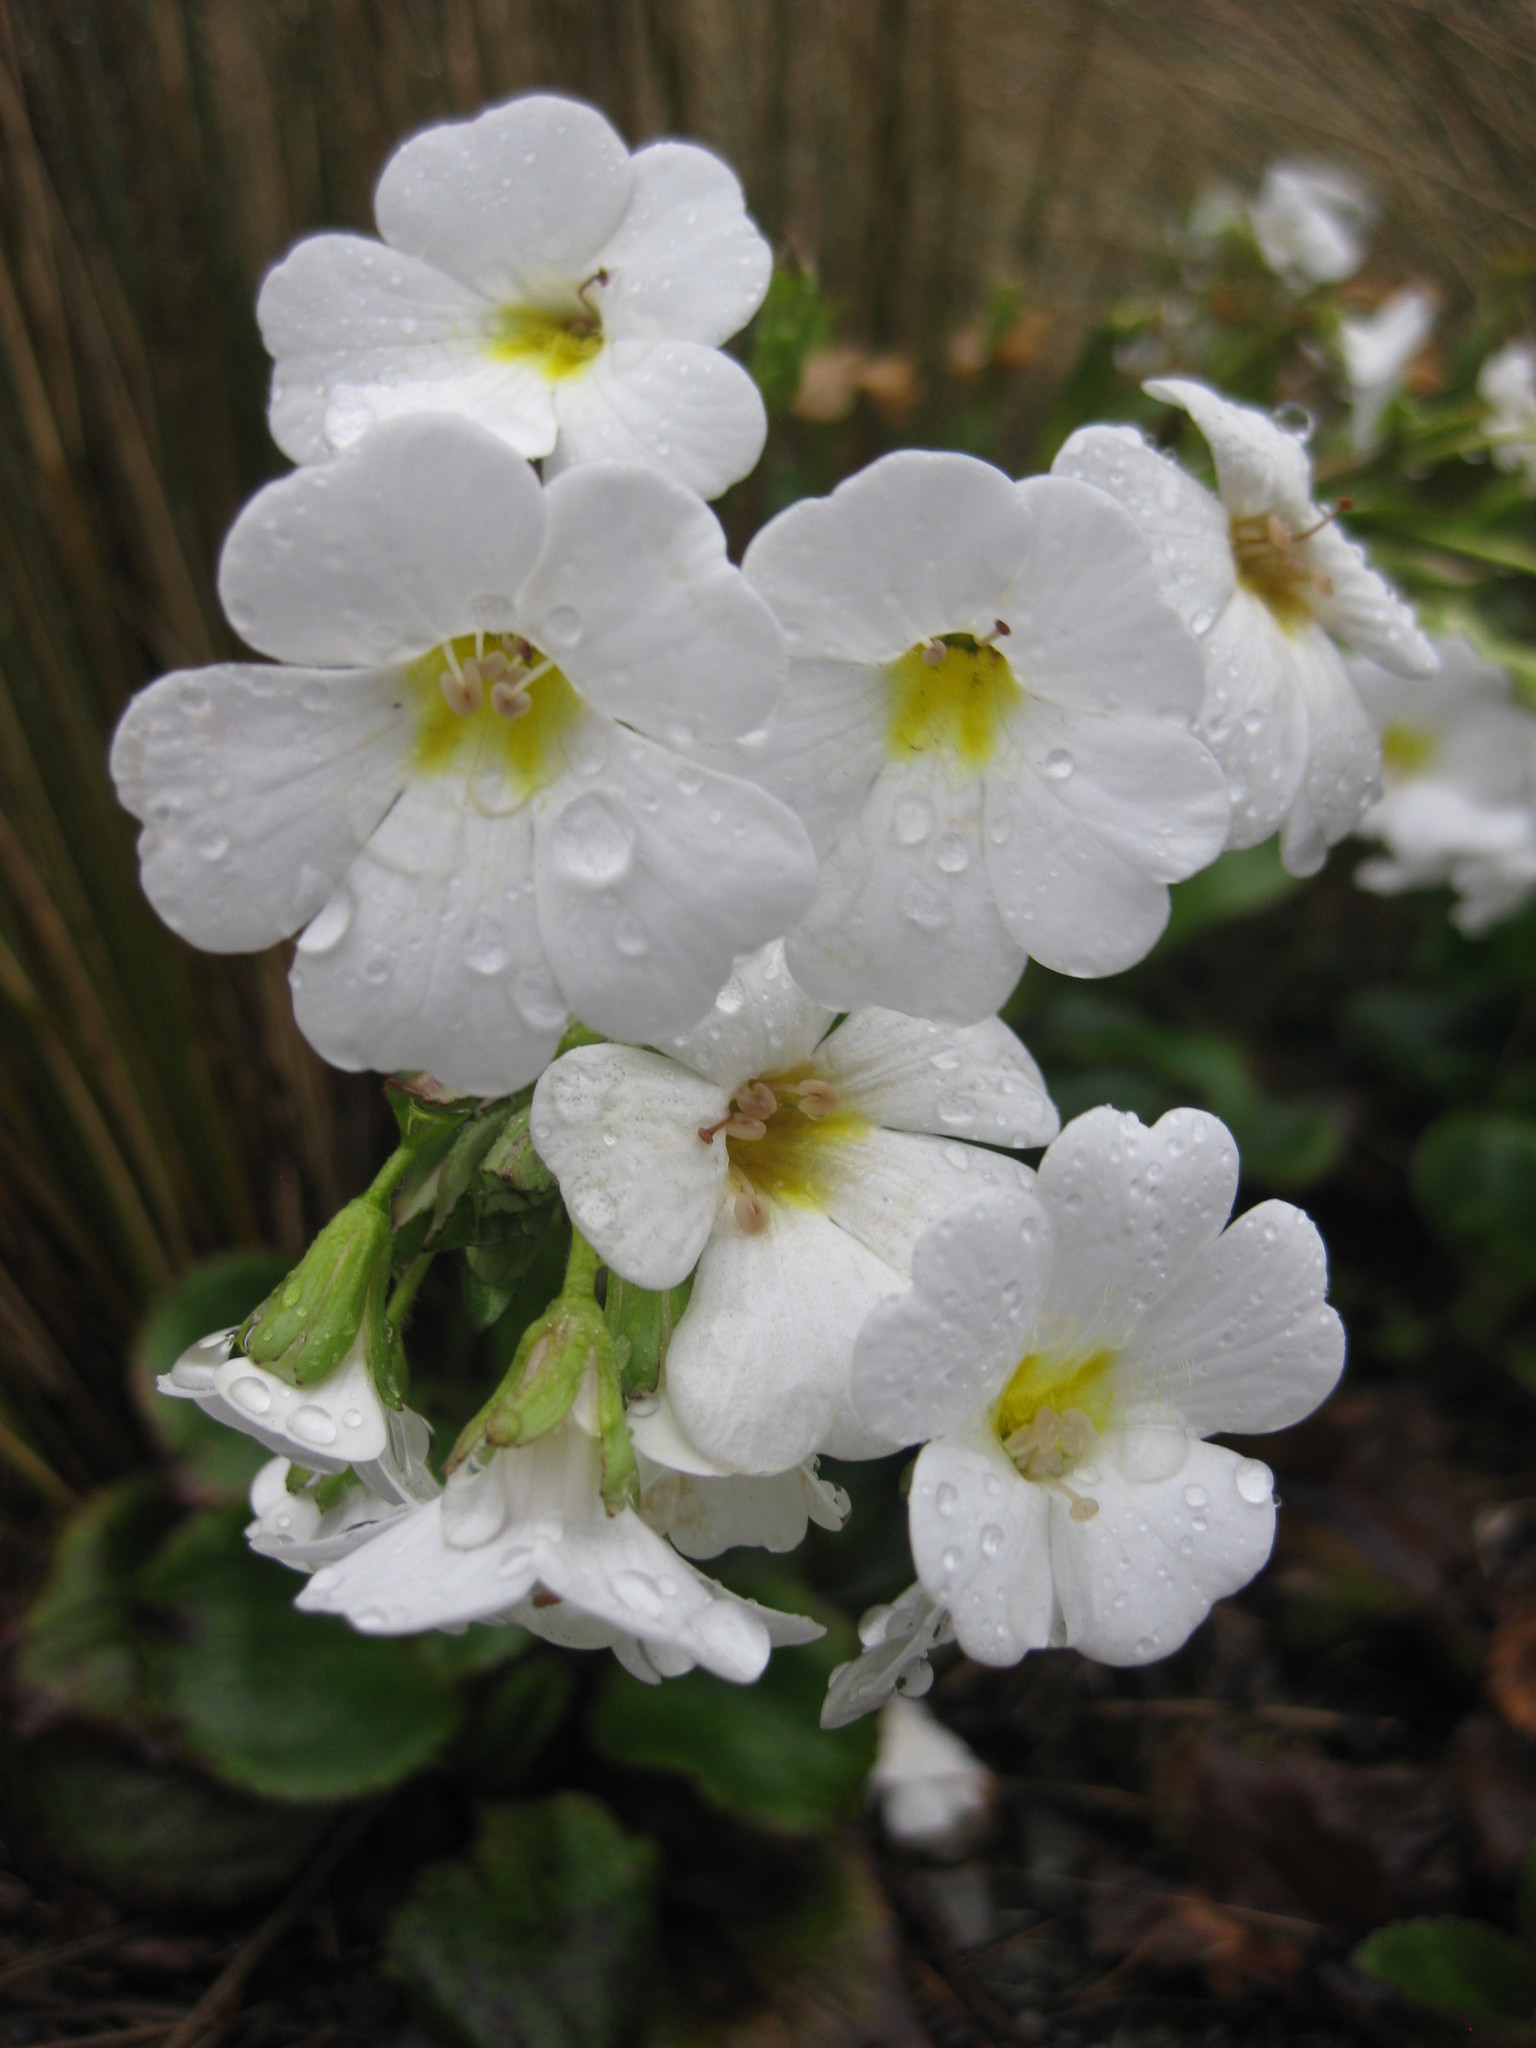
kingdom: Plantae
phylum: Tracheophyta
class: Magnoliopsida
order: Lamiales
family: Plantaginaceae
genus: Ourisia
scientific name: Ourisia calycina
